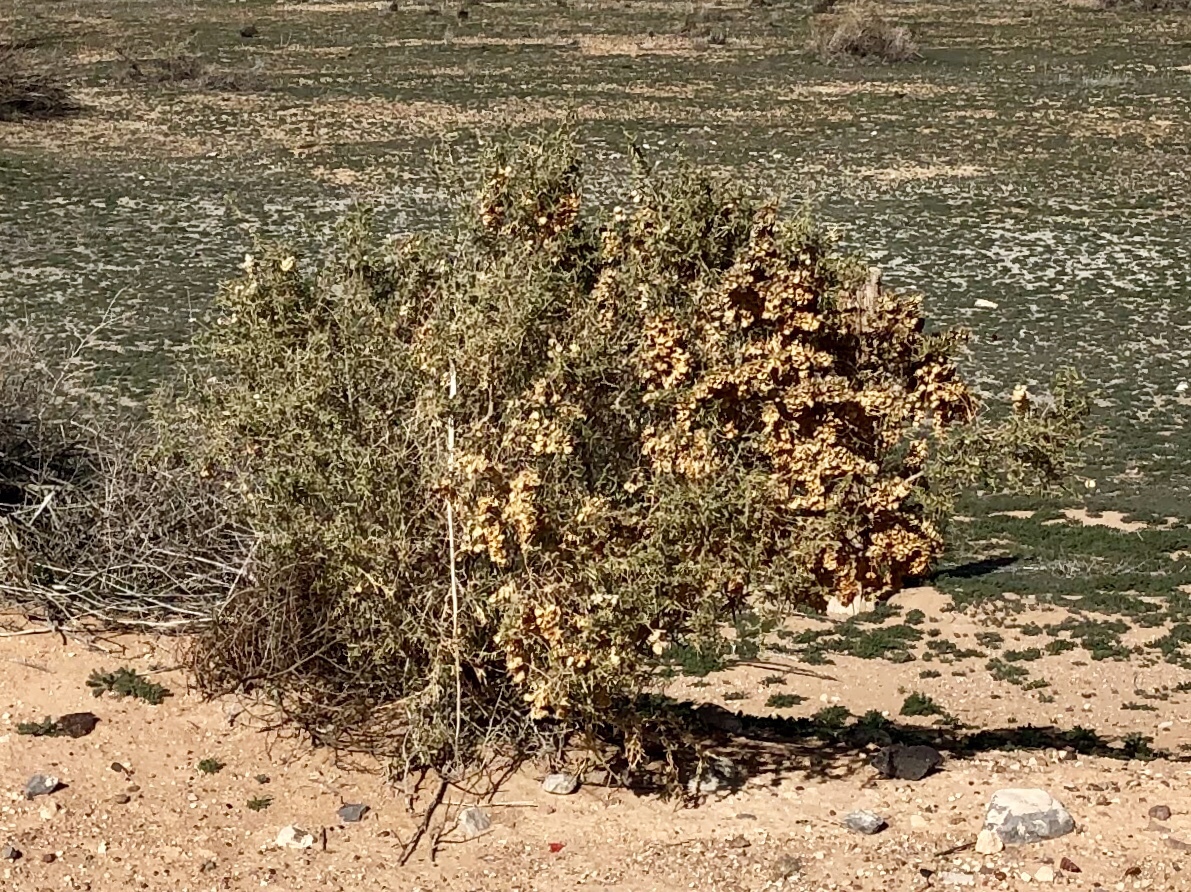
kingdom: Plantae
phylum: Tracheophyta
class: Magnoliopsida
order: Caryophyllales
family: Amaranthaceae
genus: Atriplex
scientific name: Atriplex canescens
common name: Four-wing saltbush
